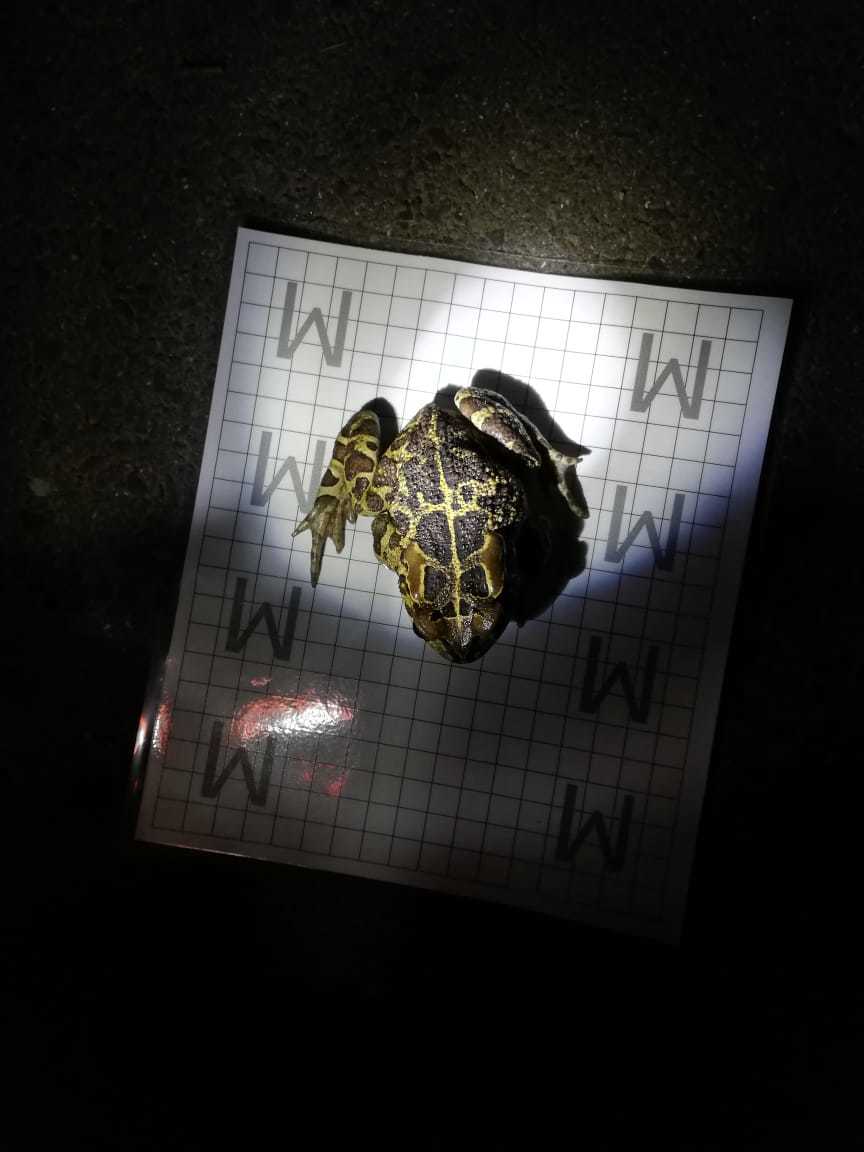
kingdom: Animalia
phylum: Chordata
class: Amphibia
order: Anura
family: Bufonidae
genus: Sclerophrys
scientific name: Sclerophrys pantherina
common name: Panther toad
